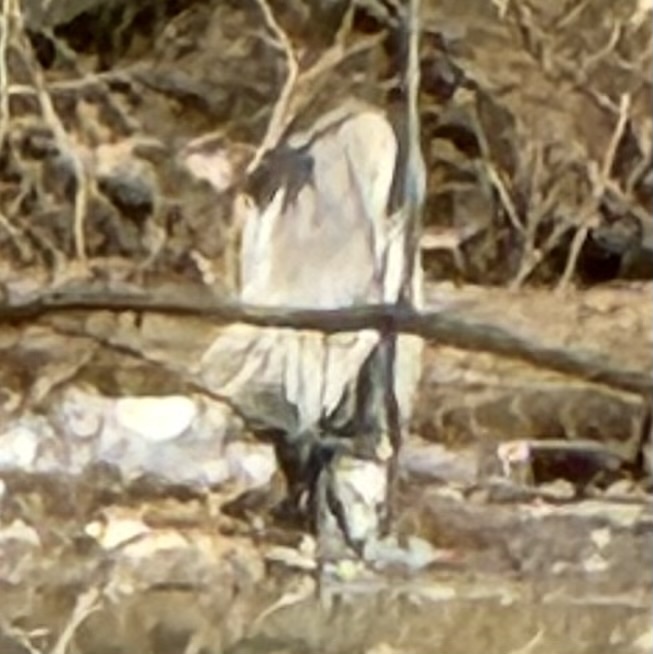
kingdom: Animalia
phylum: Chordata
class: Aves
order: Pelecaniformes
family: Ardeidae
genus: Ardea
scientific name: Ardea herodias
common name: Great blue heron
